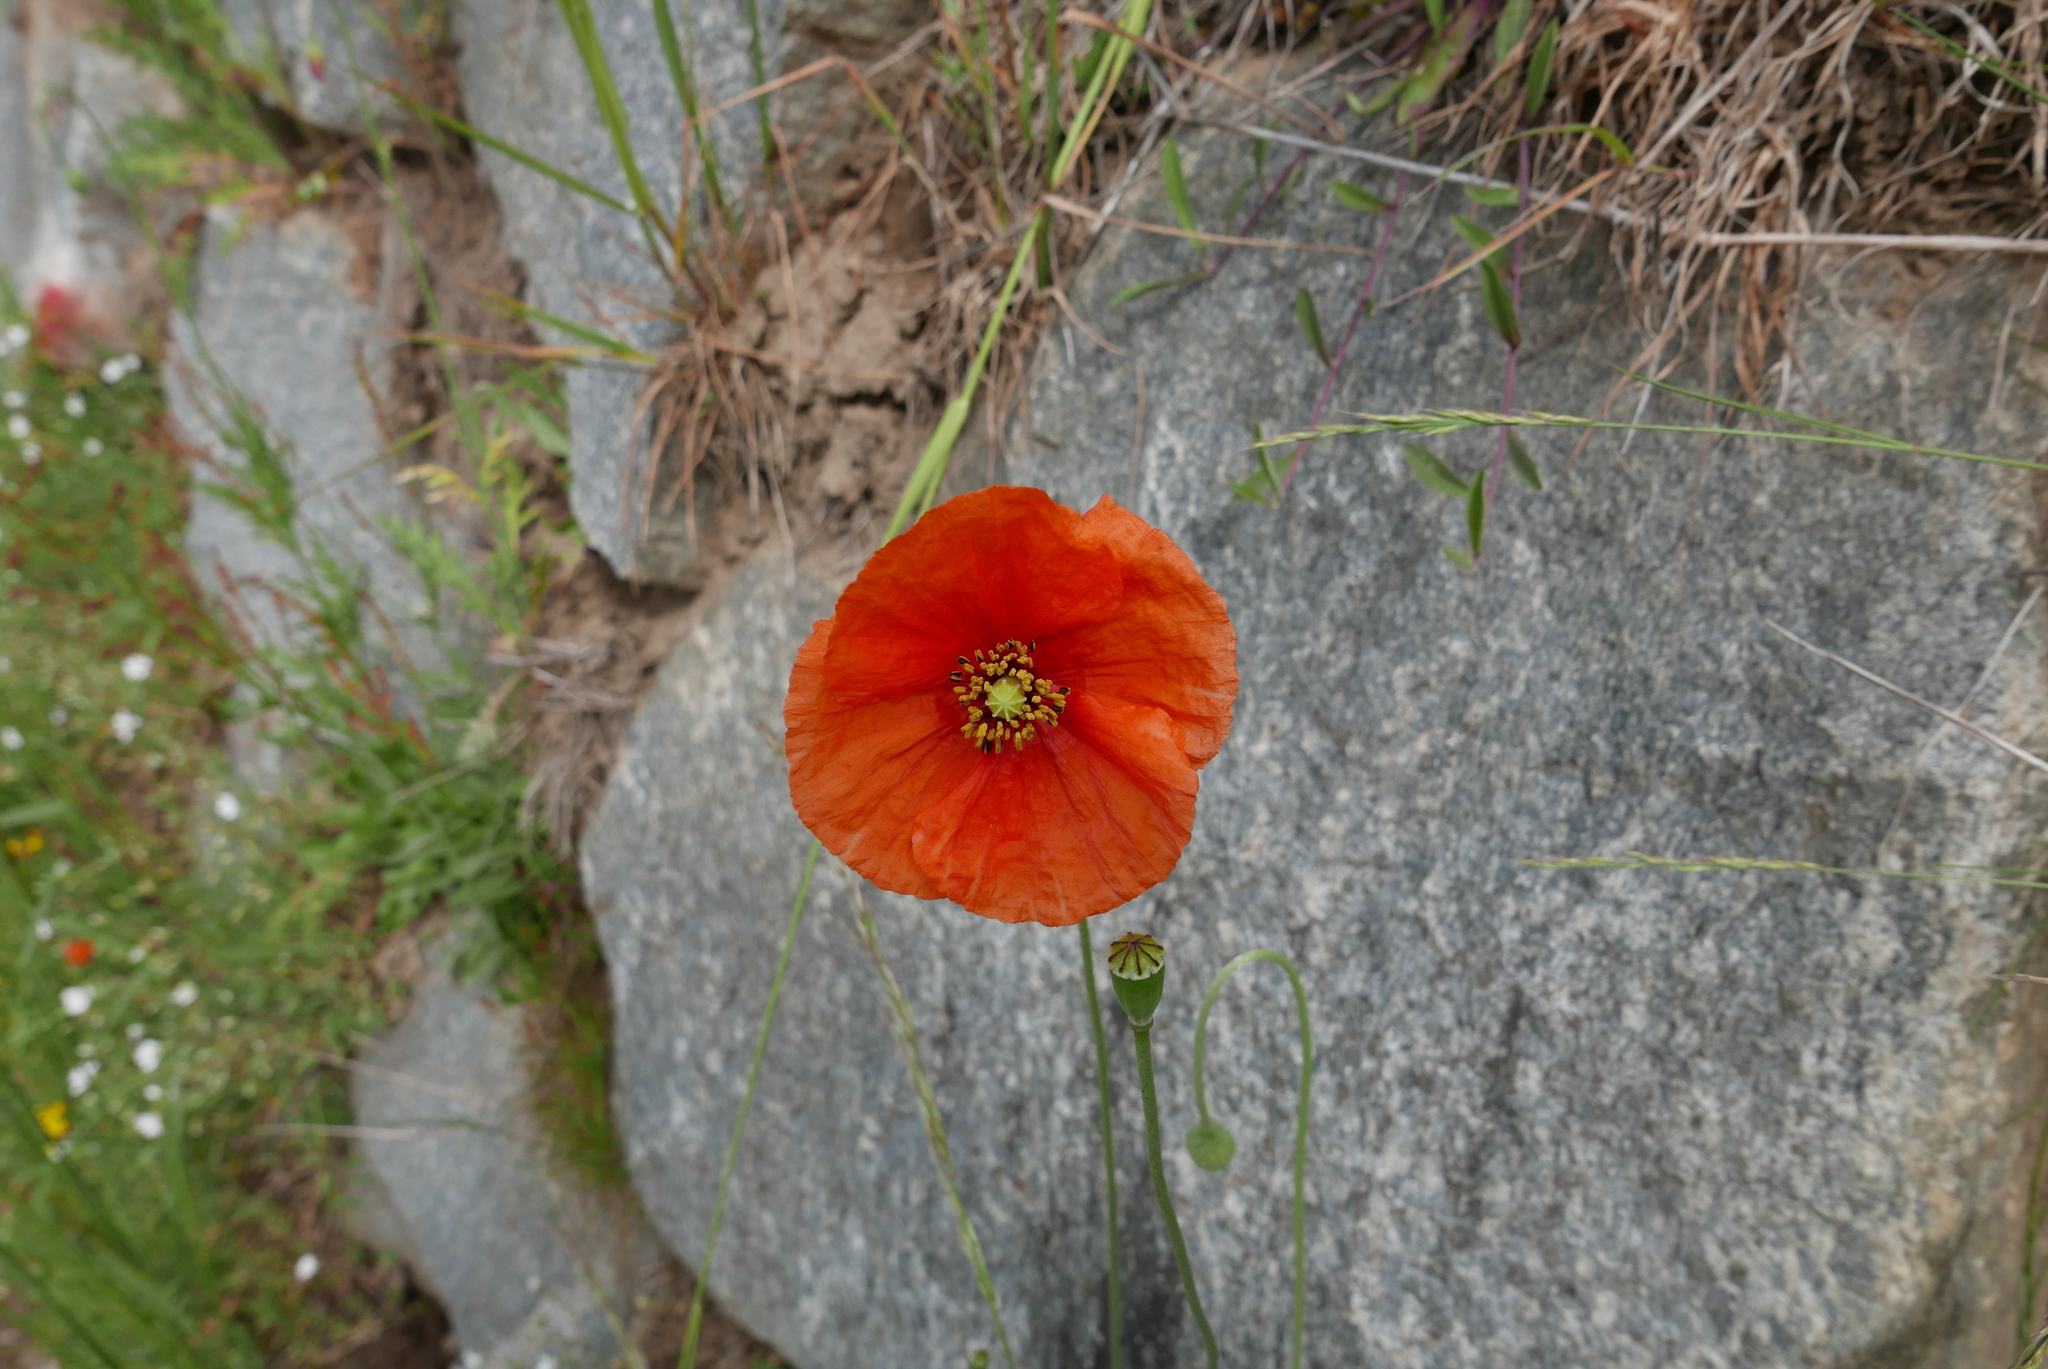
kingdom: Plantae
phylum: Tracheophyta
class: Magnoliopsida
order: Ranunculales
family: Papaveraceae
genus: Papaver
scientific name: Papaver rhoeas
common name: Corn poppy
